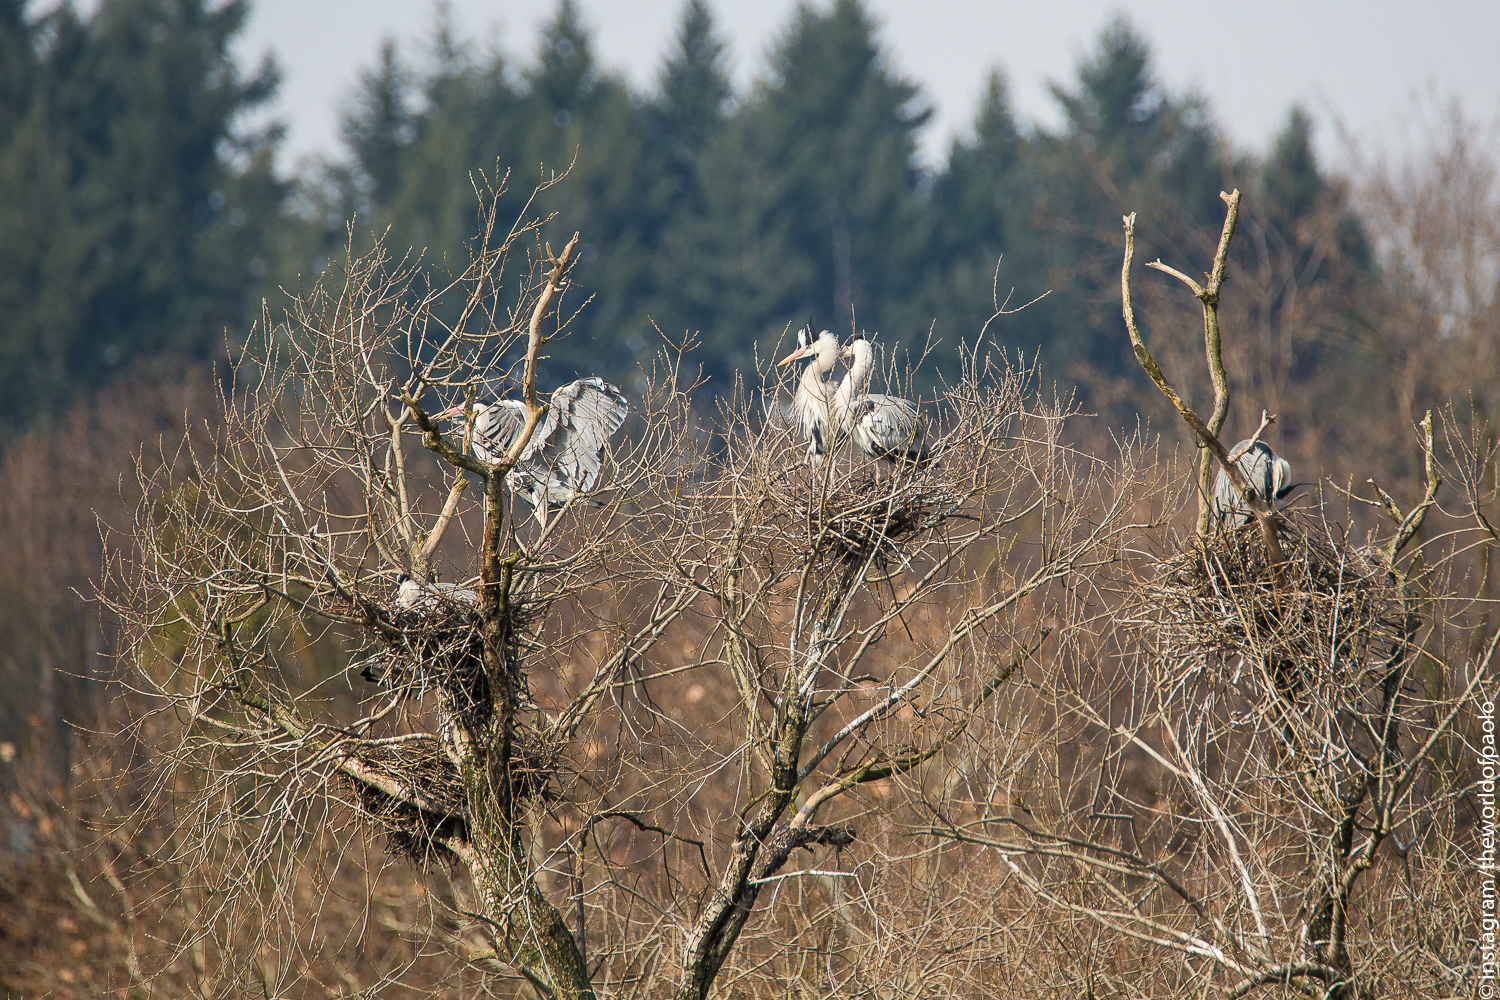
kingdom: Animalia
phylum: Chordata
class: Aves
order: Pelecaniformes
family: Ardeidae
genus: Ardea
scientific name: Ardea cinerea
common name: Grey heron
